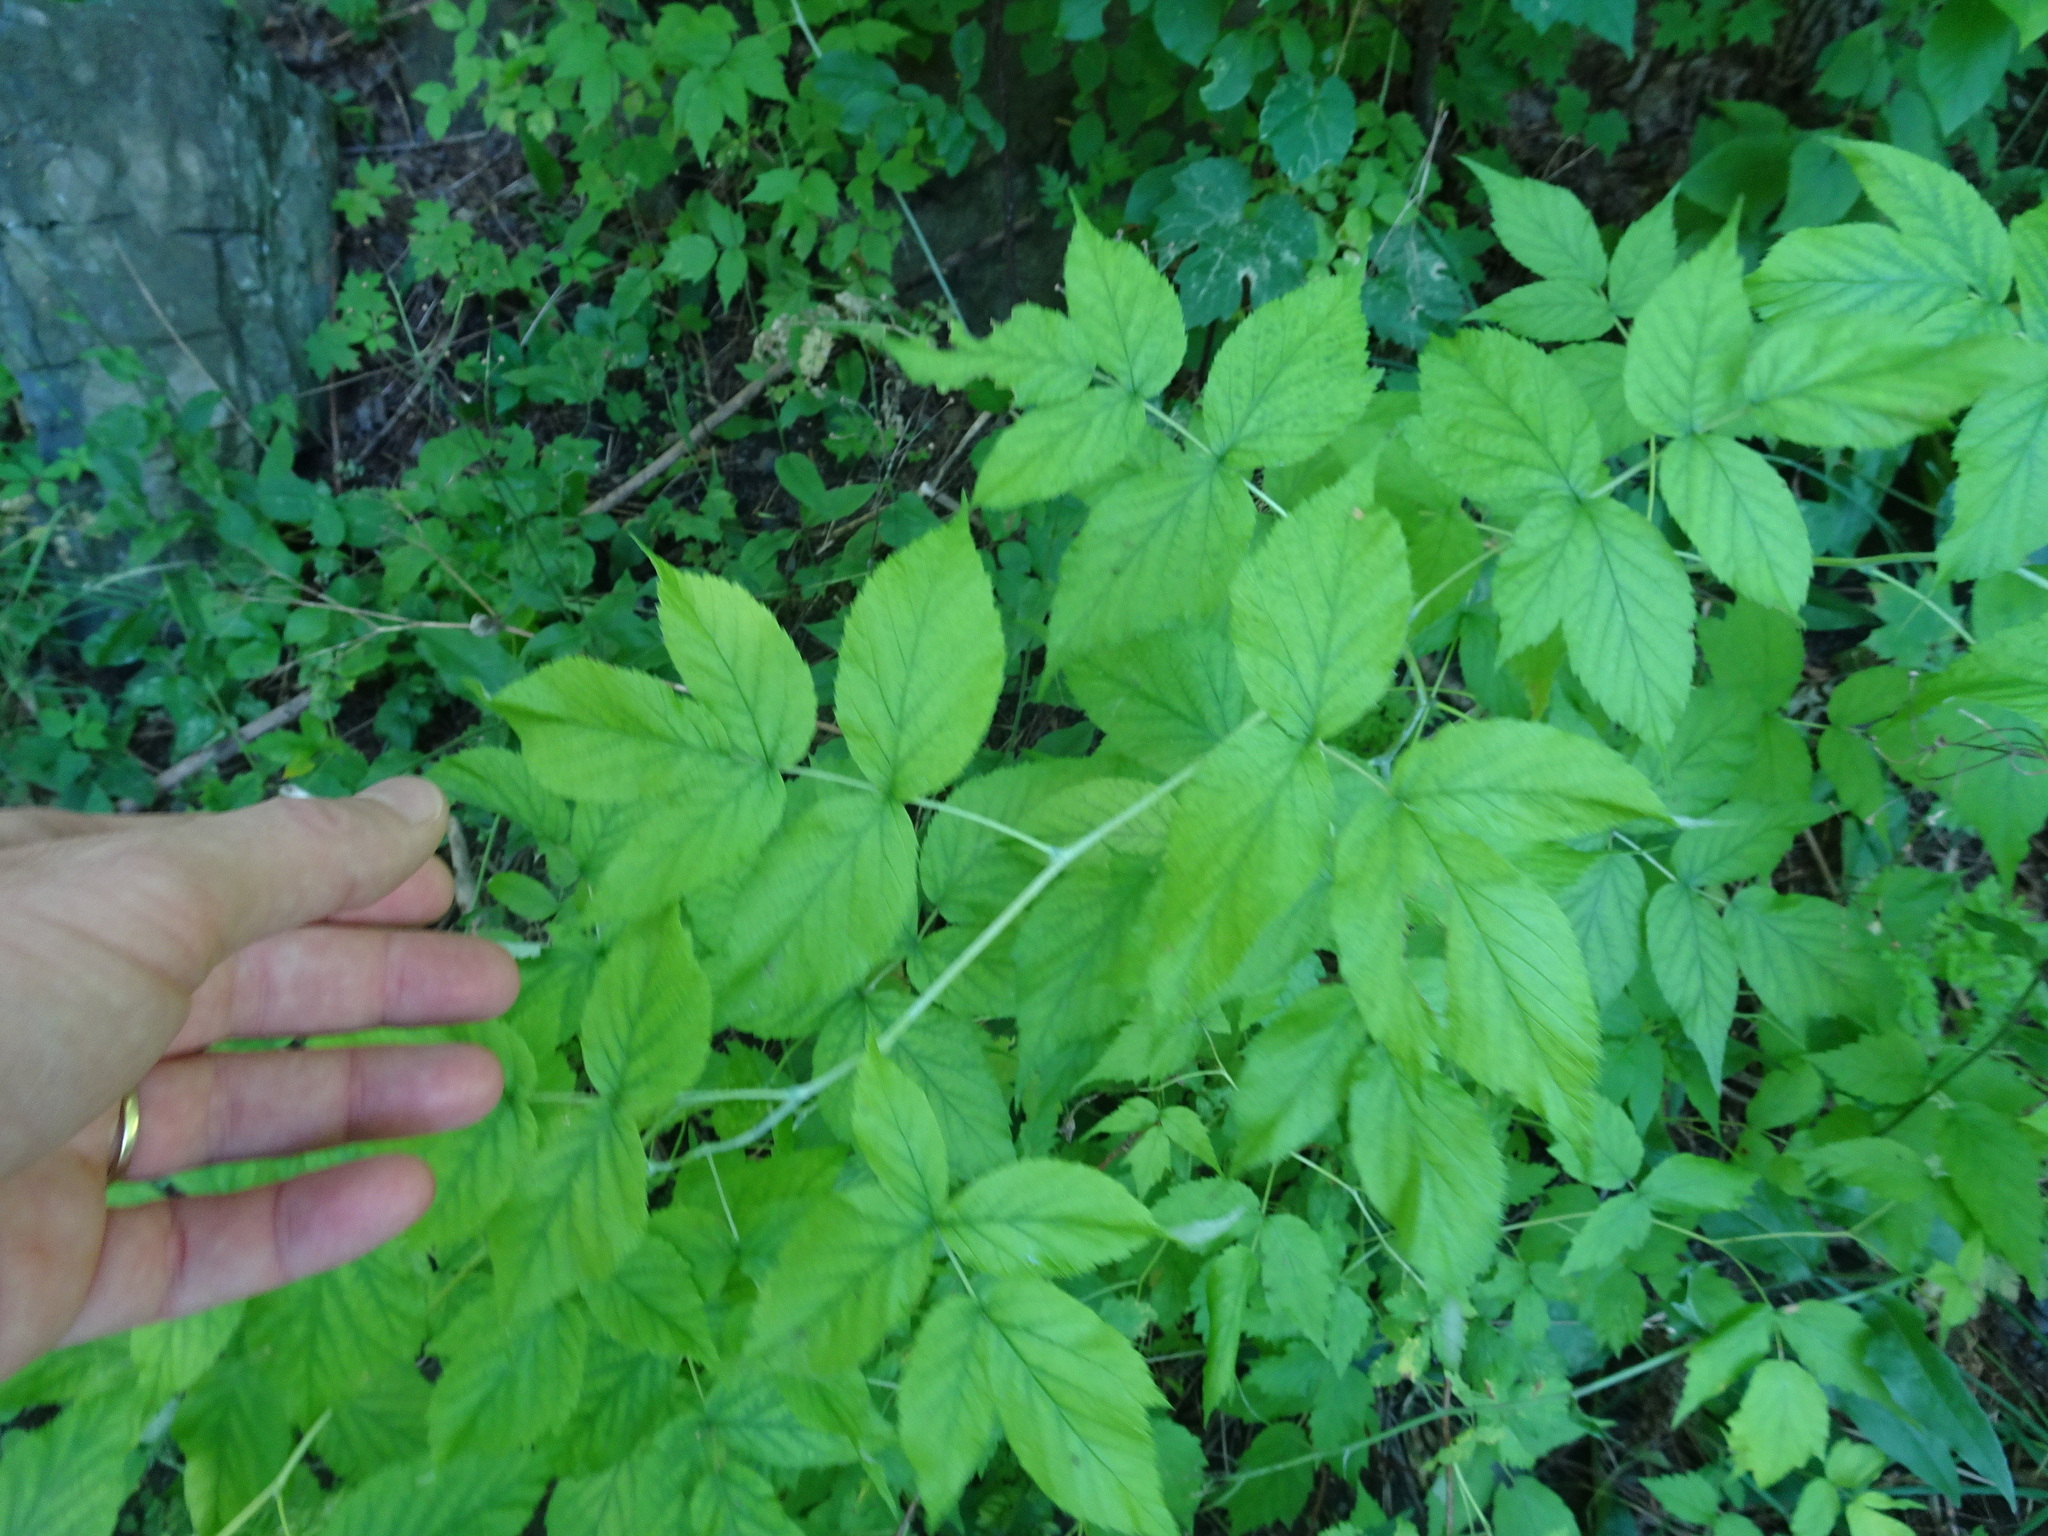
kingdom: Plantae
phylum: Tracheophyta
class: Magnoliopsida
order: Rosales
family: Rosaceae
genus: Rubus
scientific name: Rubus idaeus
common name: Raspberry
